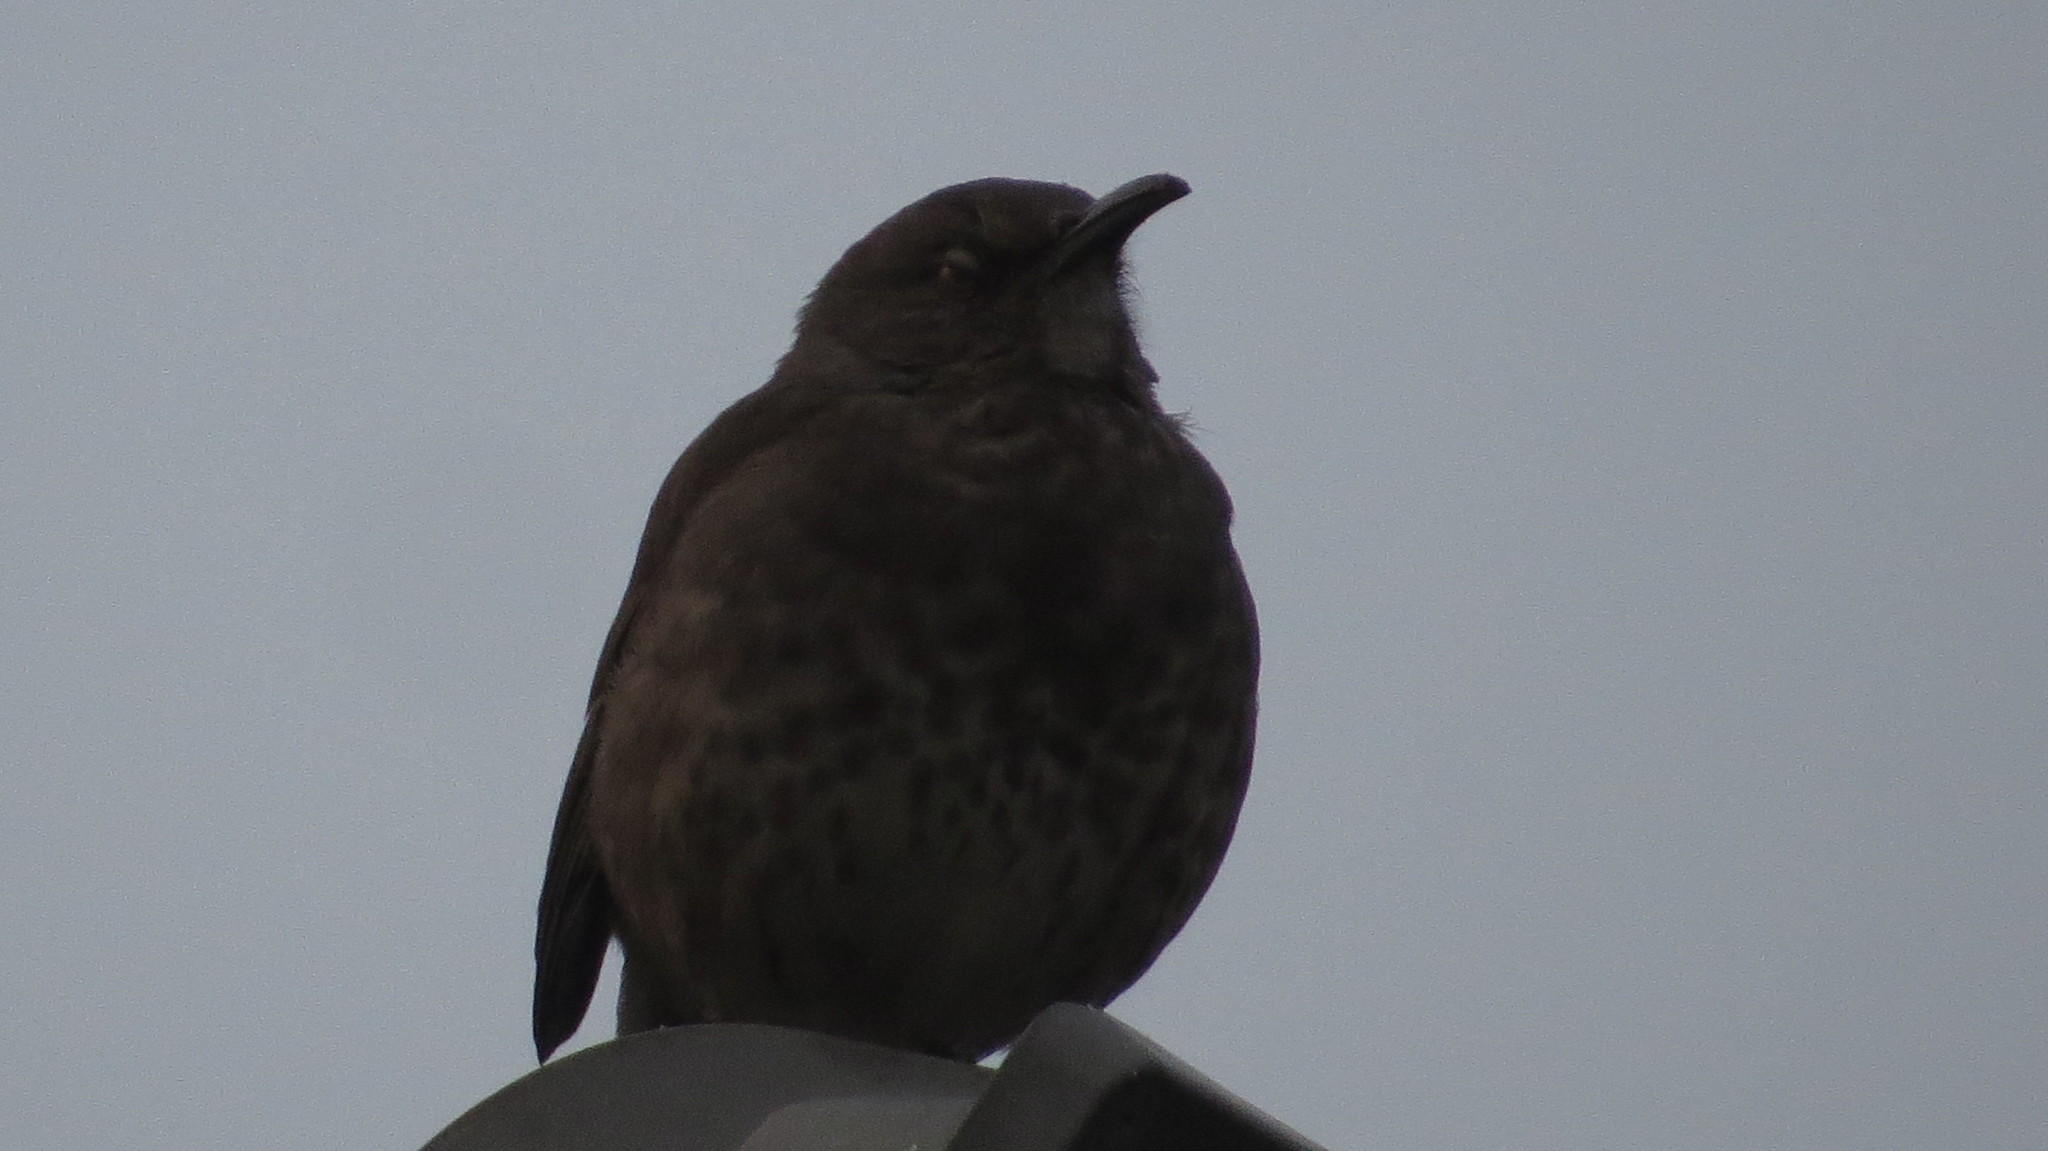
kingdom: Animalia
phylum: Chordata
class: Aves
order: Passeriformes
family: Mimidae
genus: Toxostoma
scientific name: Toxostoma curvirostre
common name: Curve-billed thrasher
